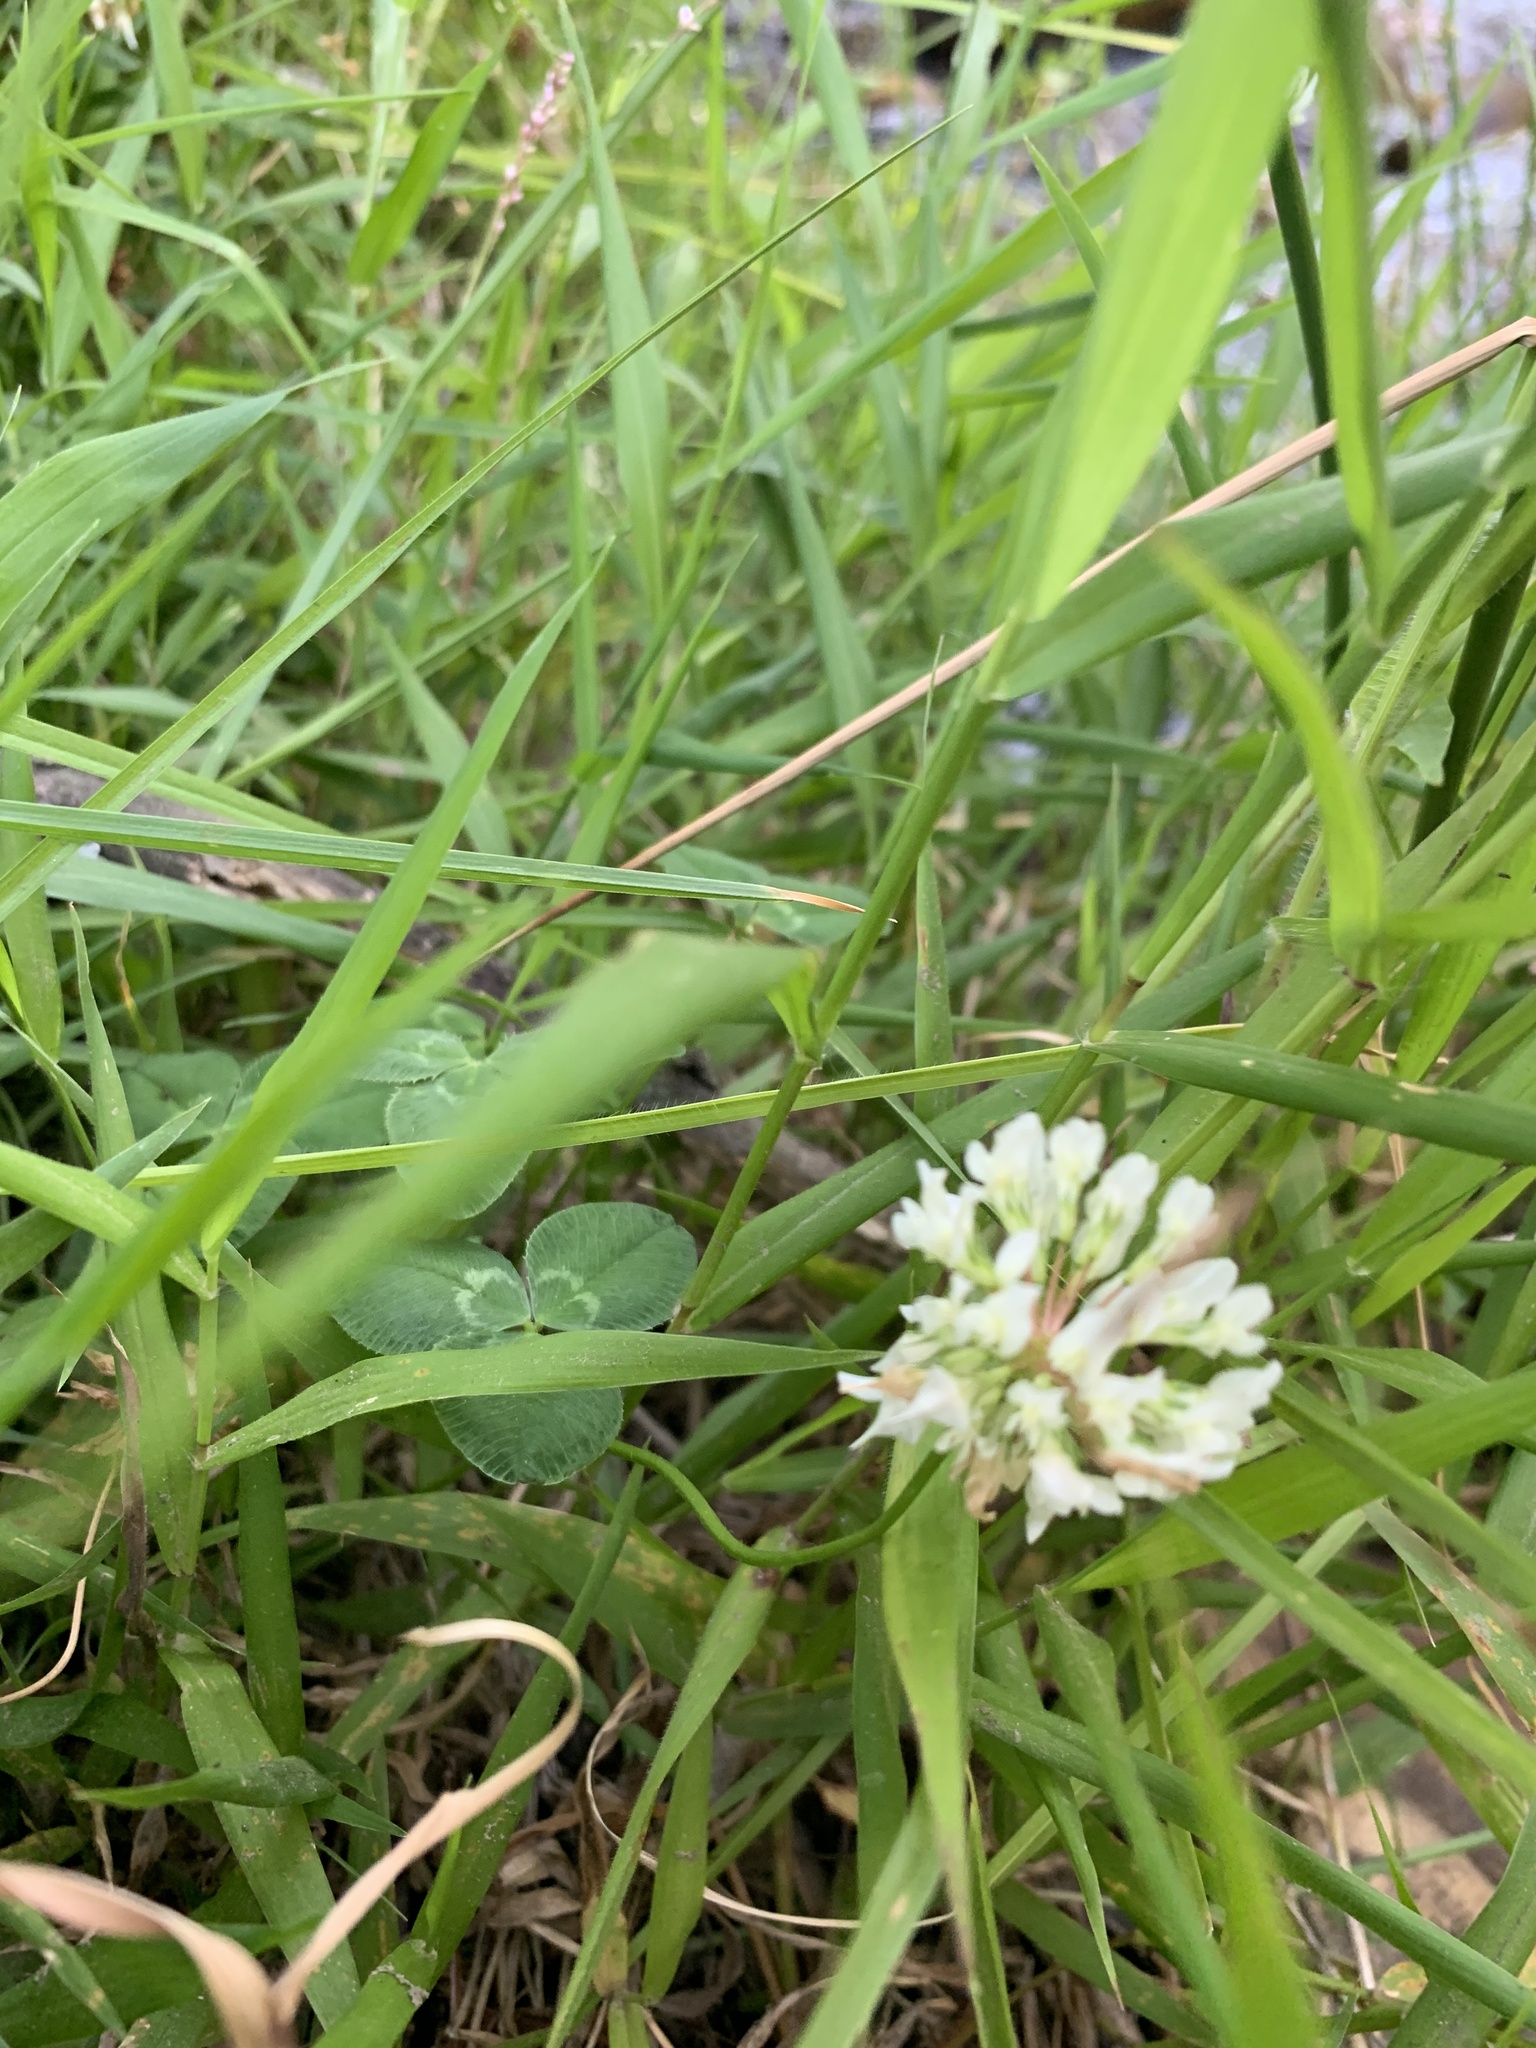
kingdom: Plantae
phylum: Tracheophyta
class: Magnoliopsida
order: Fabales
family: Fabaceae
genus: Trifolium
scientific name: Trifolium repens
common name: White clover
